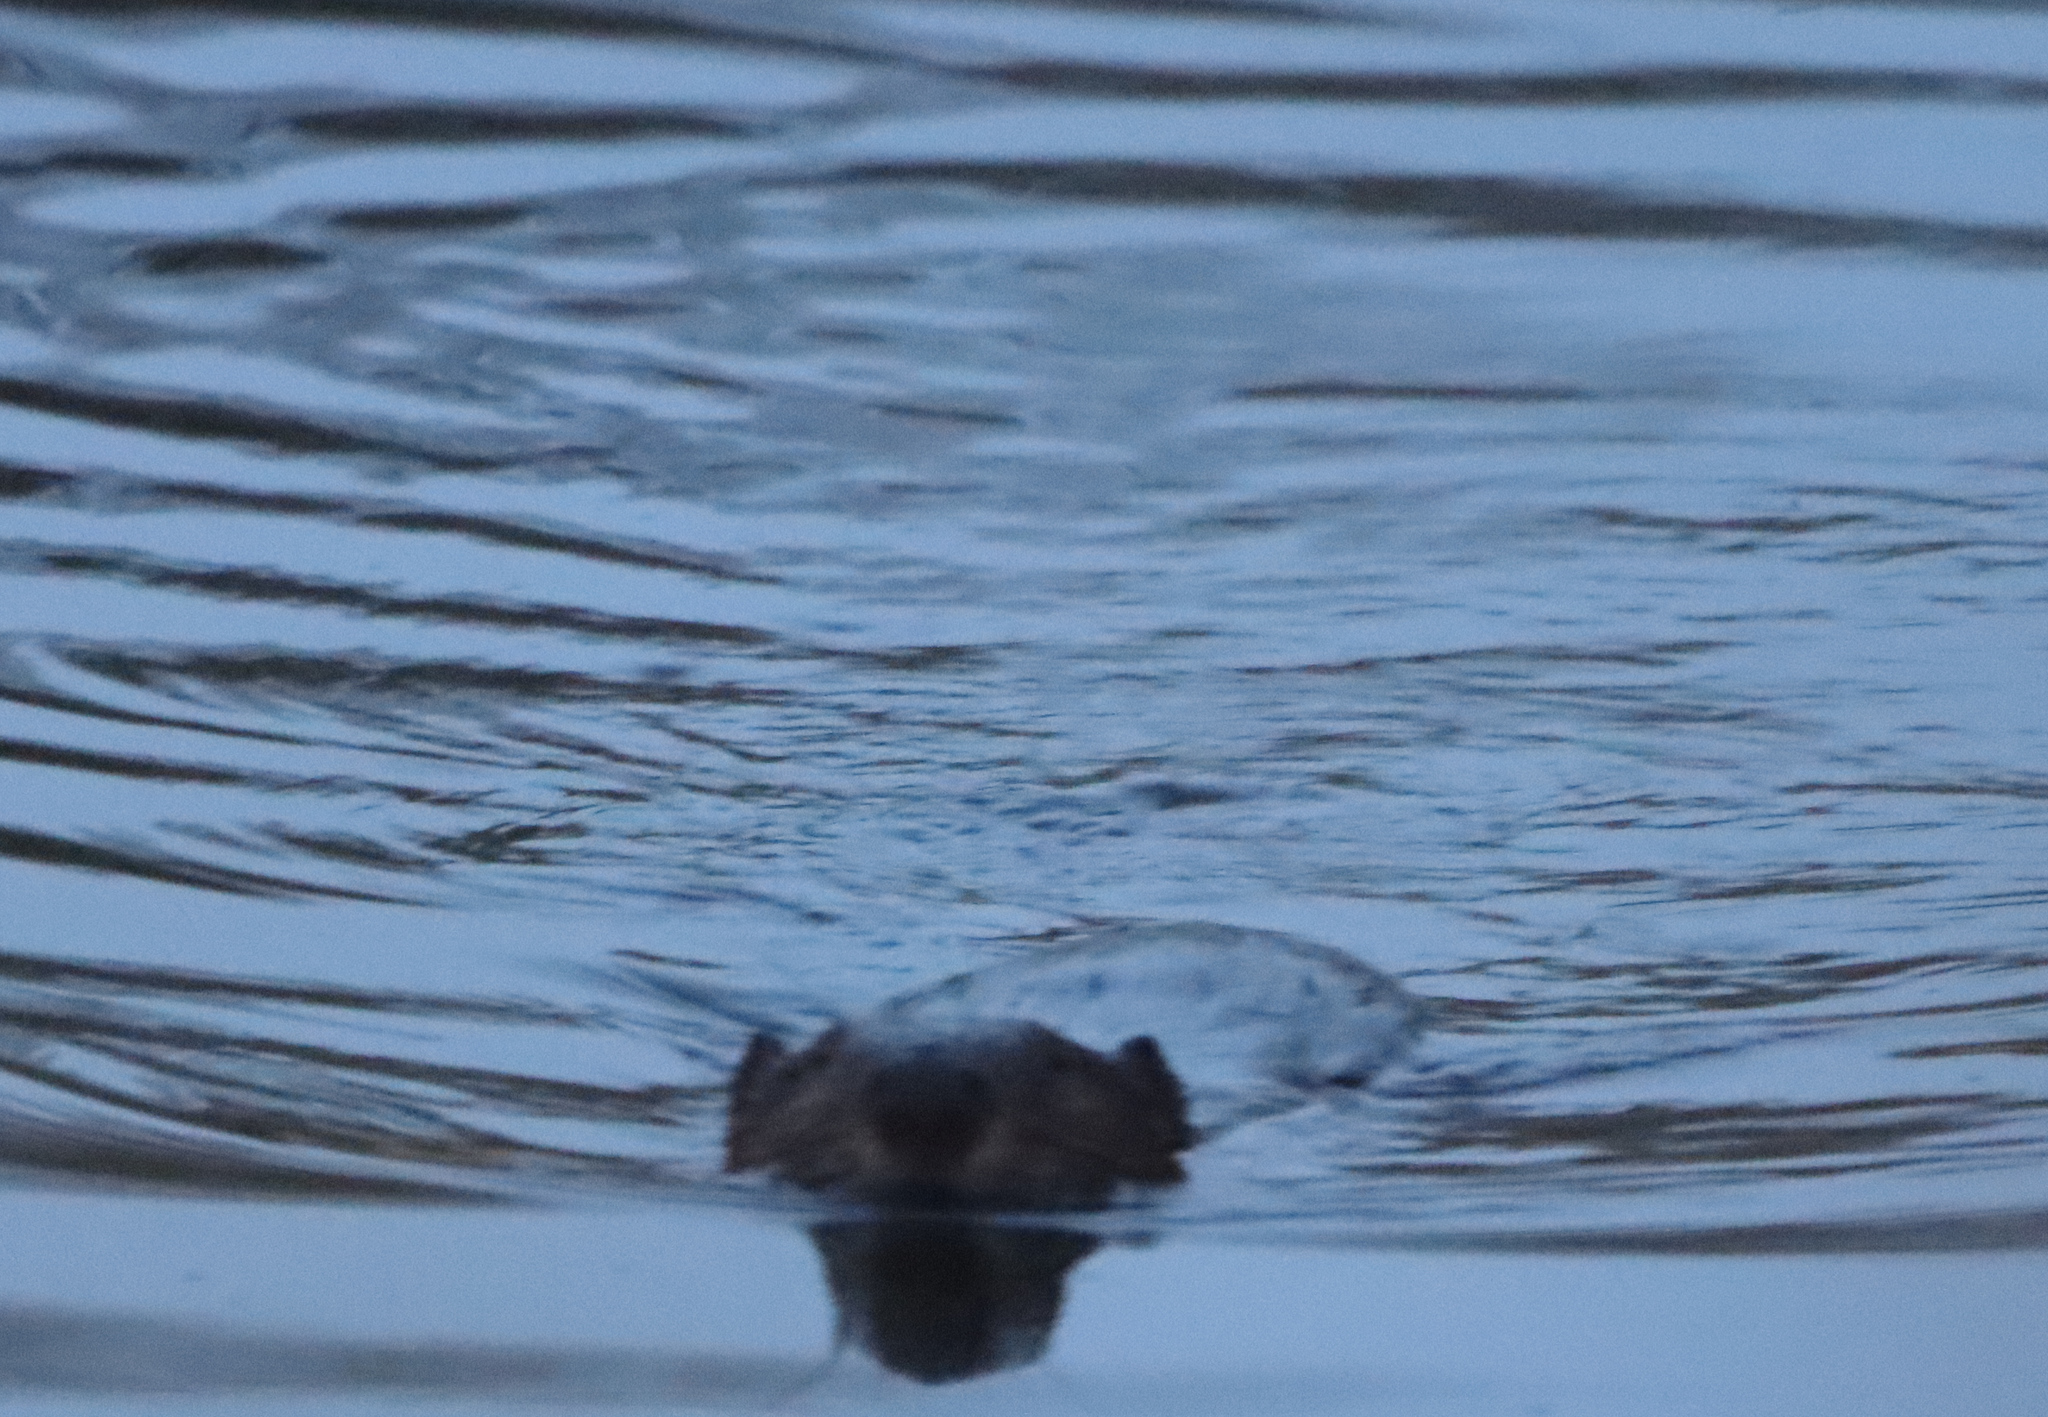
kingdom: Animalia
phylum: Chordata
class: Mammalia
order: Rodentia
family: Castoridae
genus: Castor
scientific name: Castor canadensis
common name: American beaver
